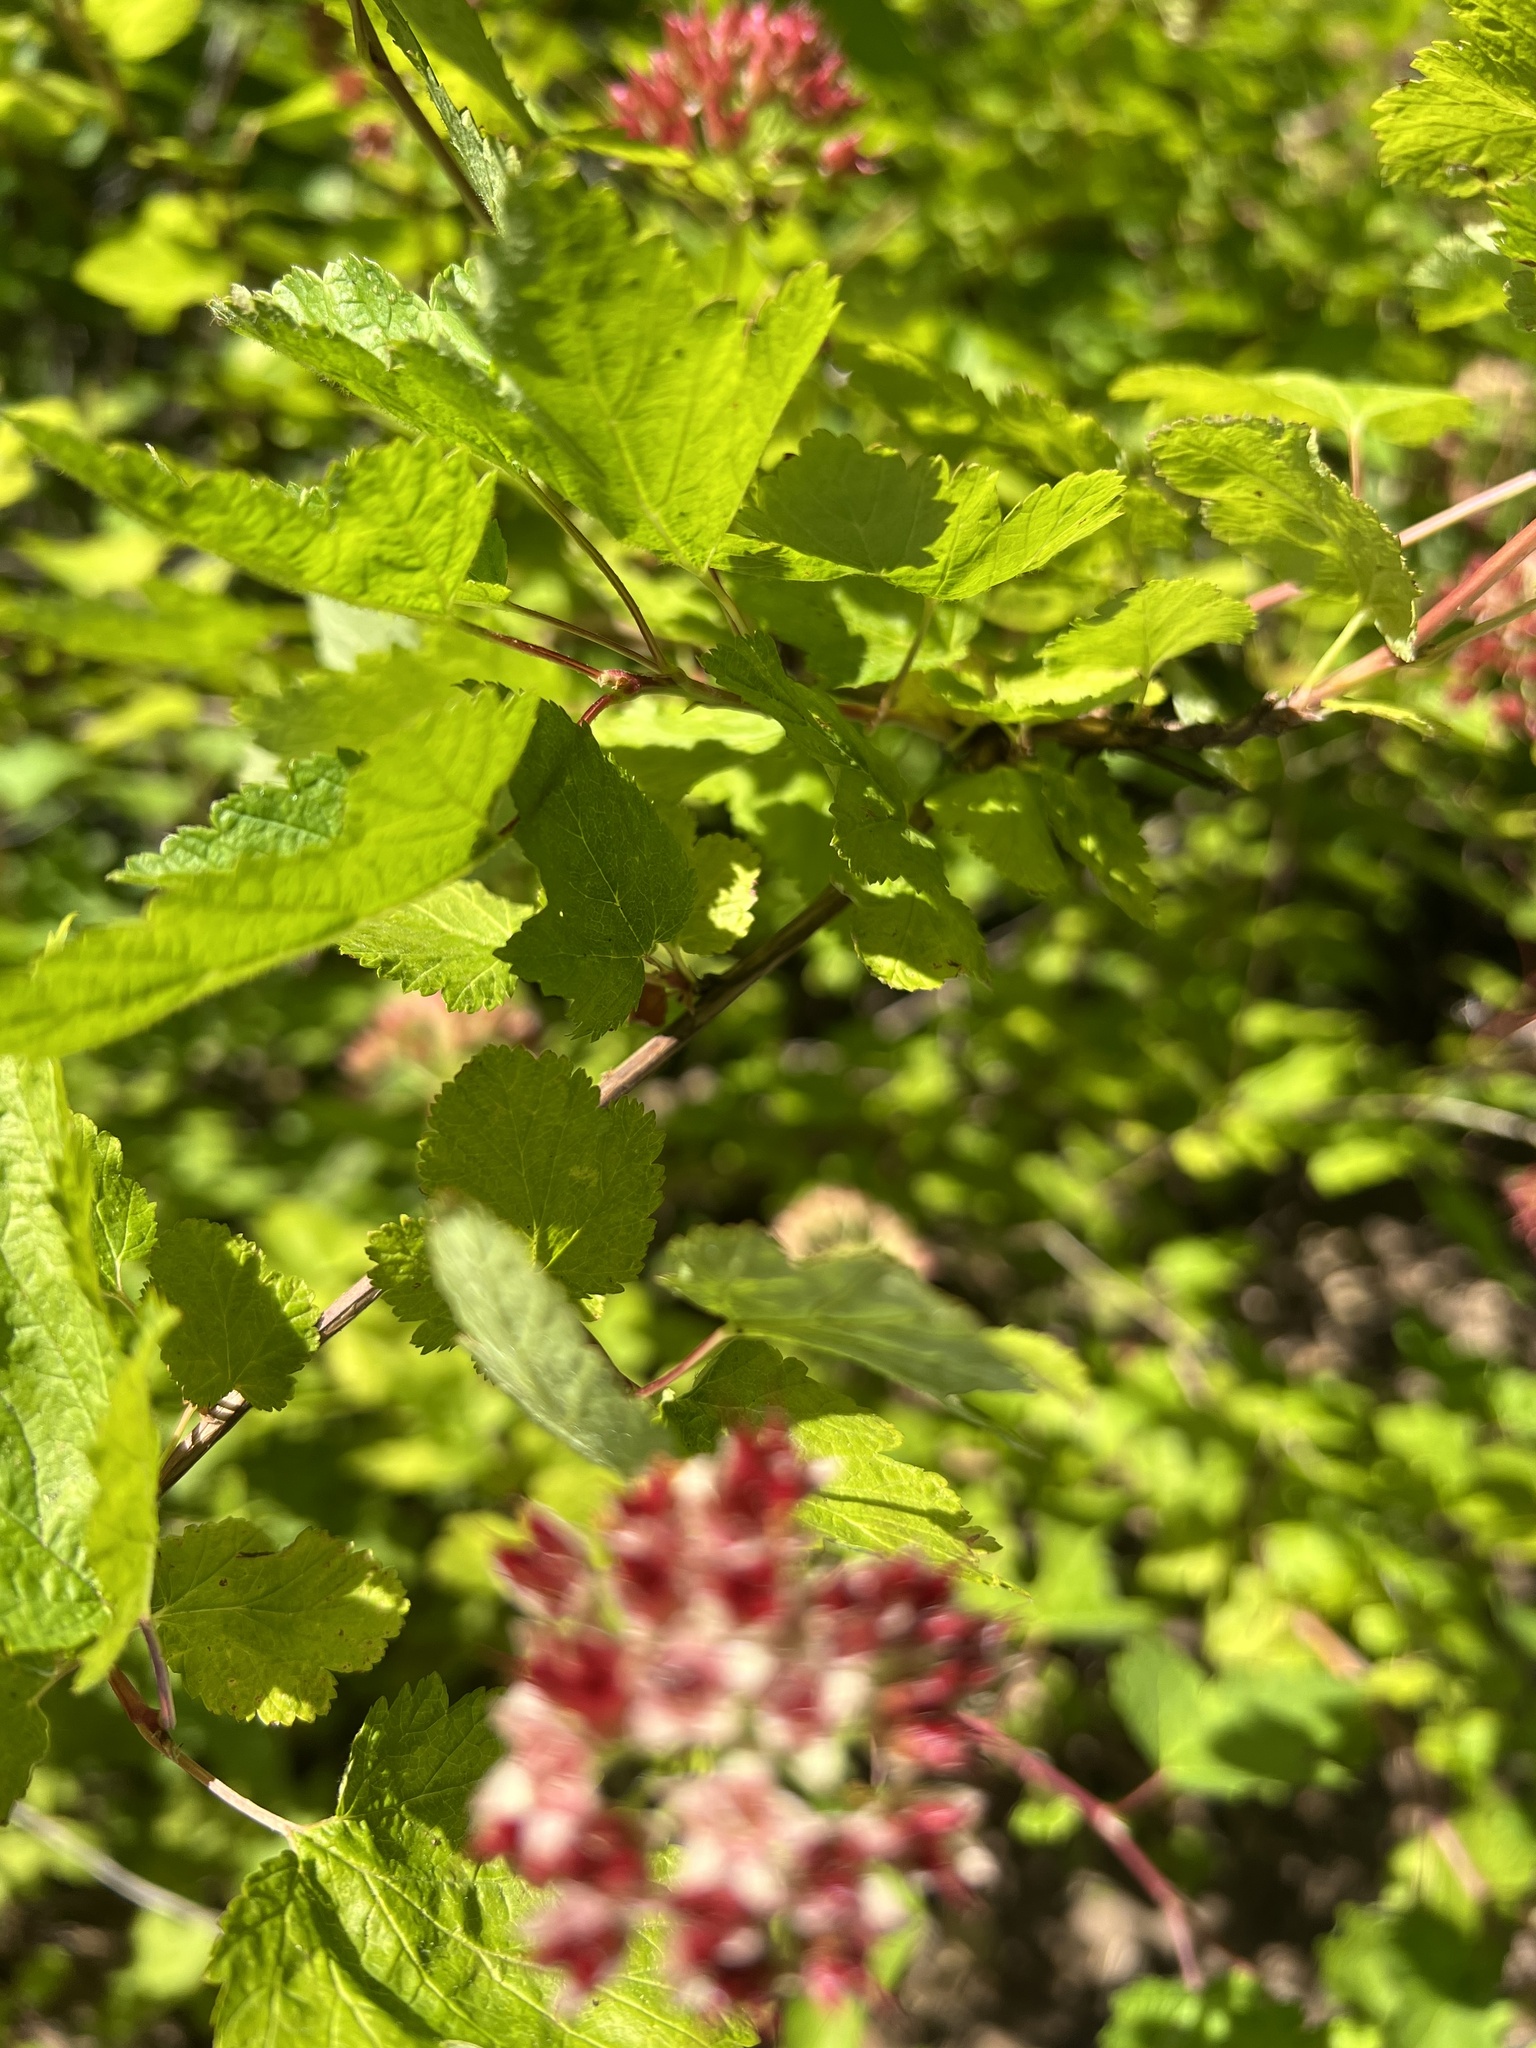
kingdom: Plantae
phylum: Tracheophyta
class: Magnoliopsida
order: Rosales
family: Rosaceae
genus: Physocarpus
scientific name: Physocarpus capitatus
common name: Pacific ninebark
